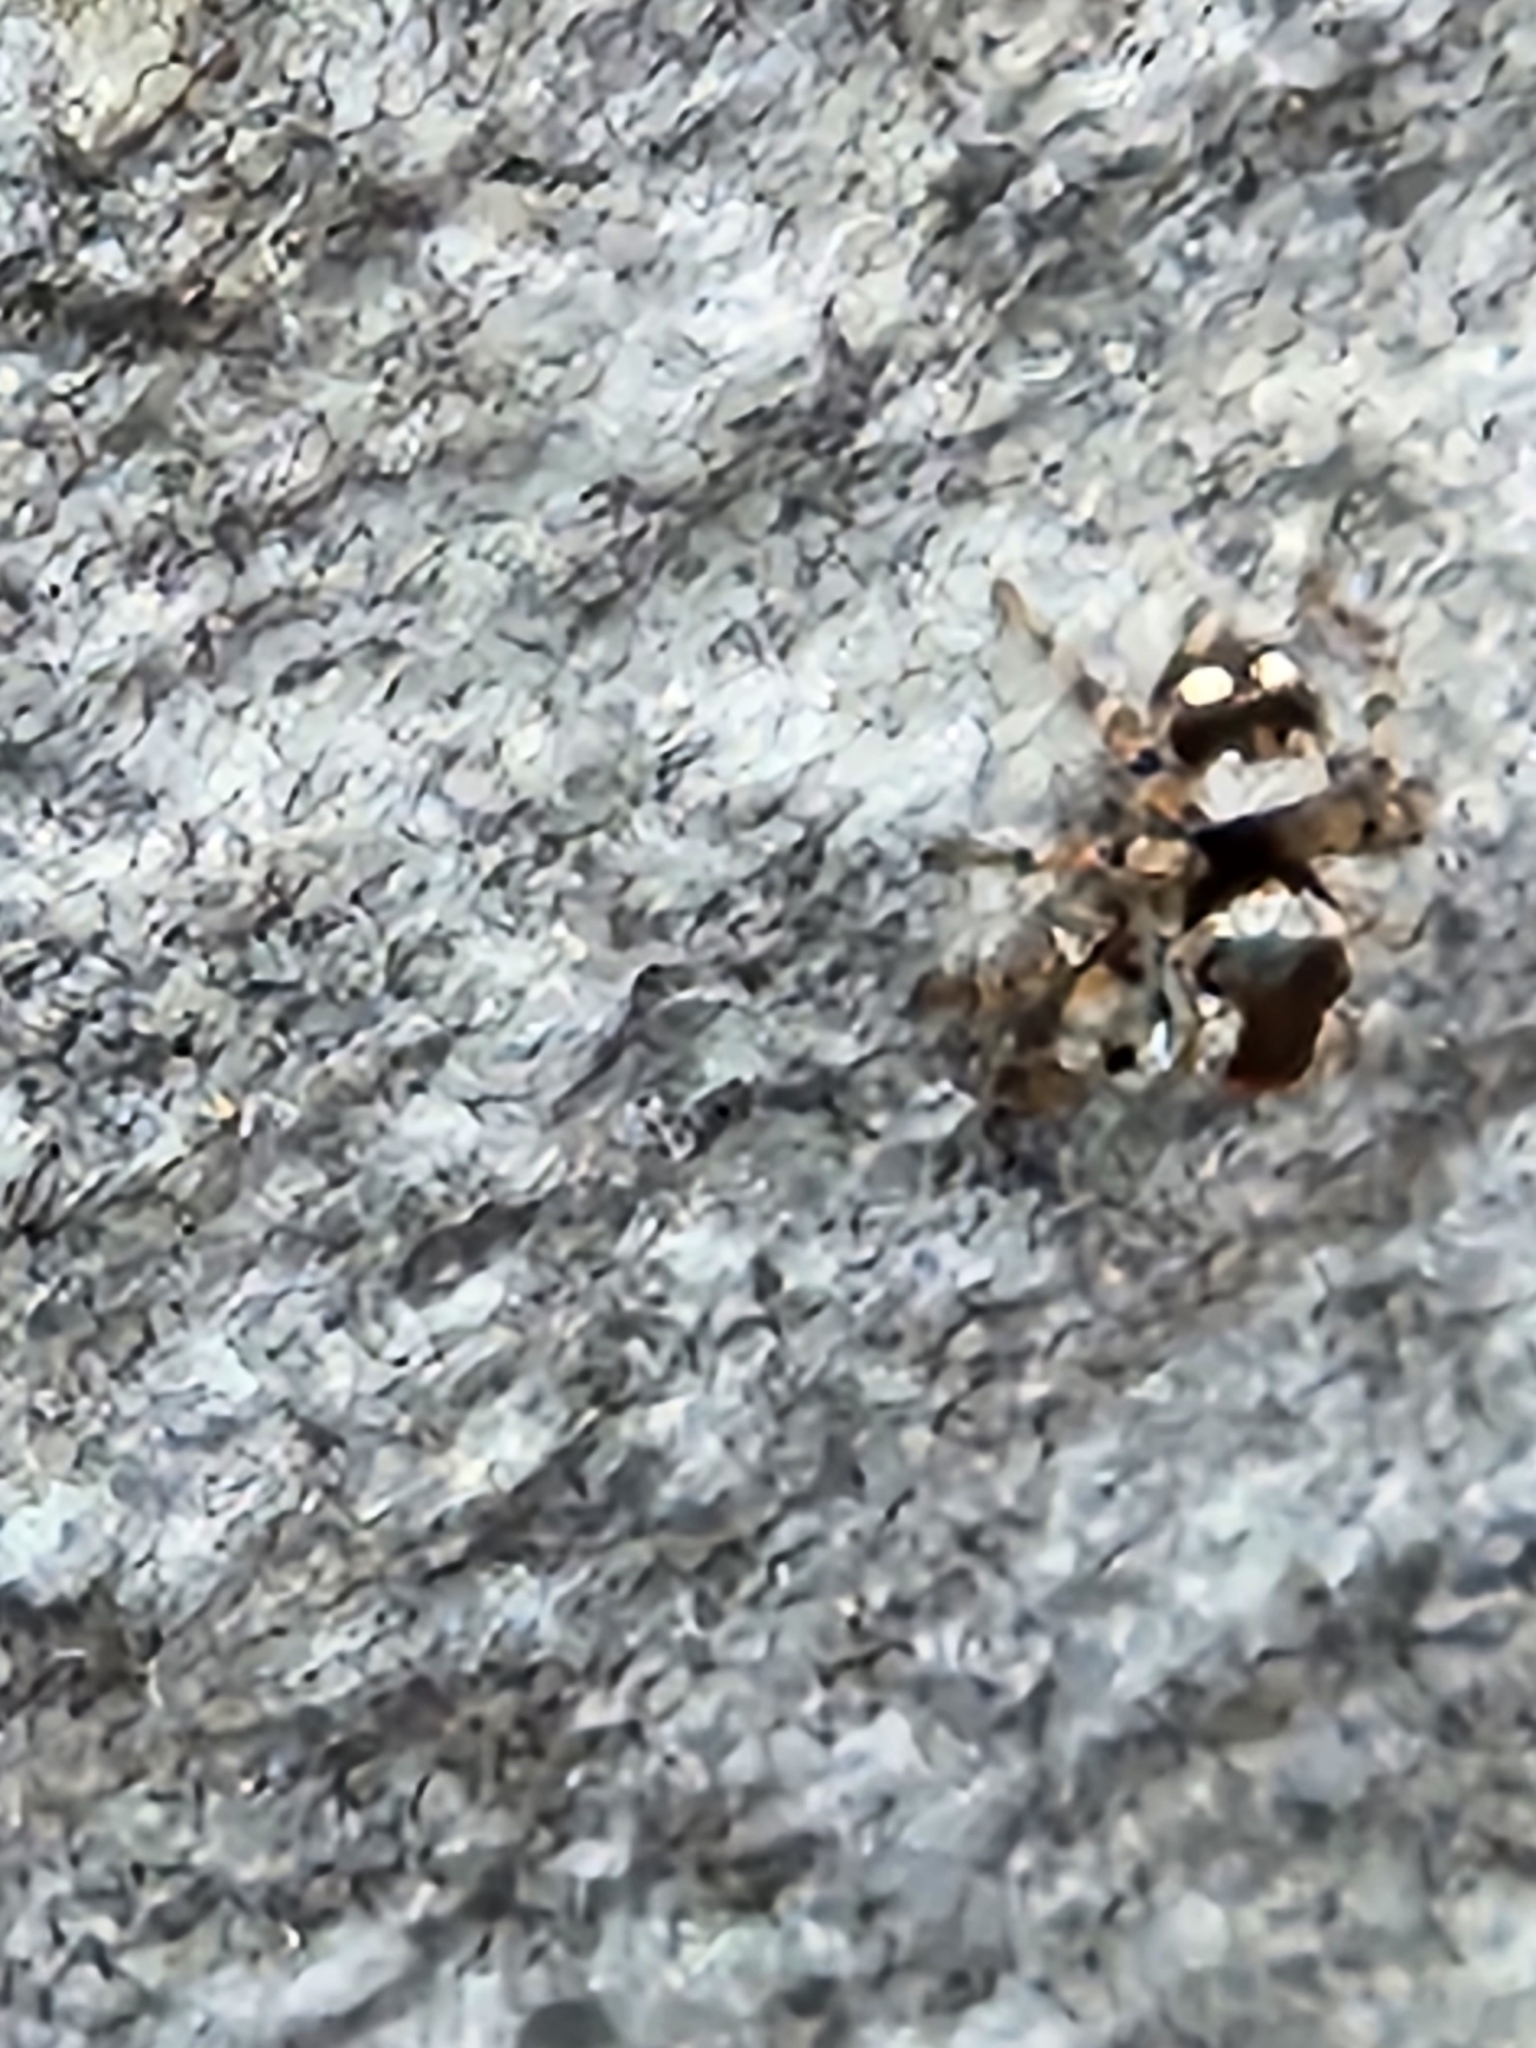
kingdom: Animalia
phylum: Arthropoda
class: Arachnida
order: Araneae
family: Salticidae
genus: Naphrys
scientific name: Naphrys acerba
